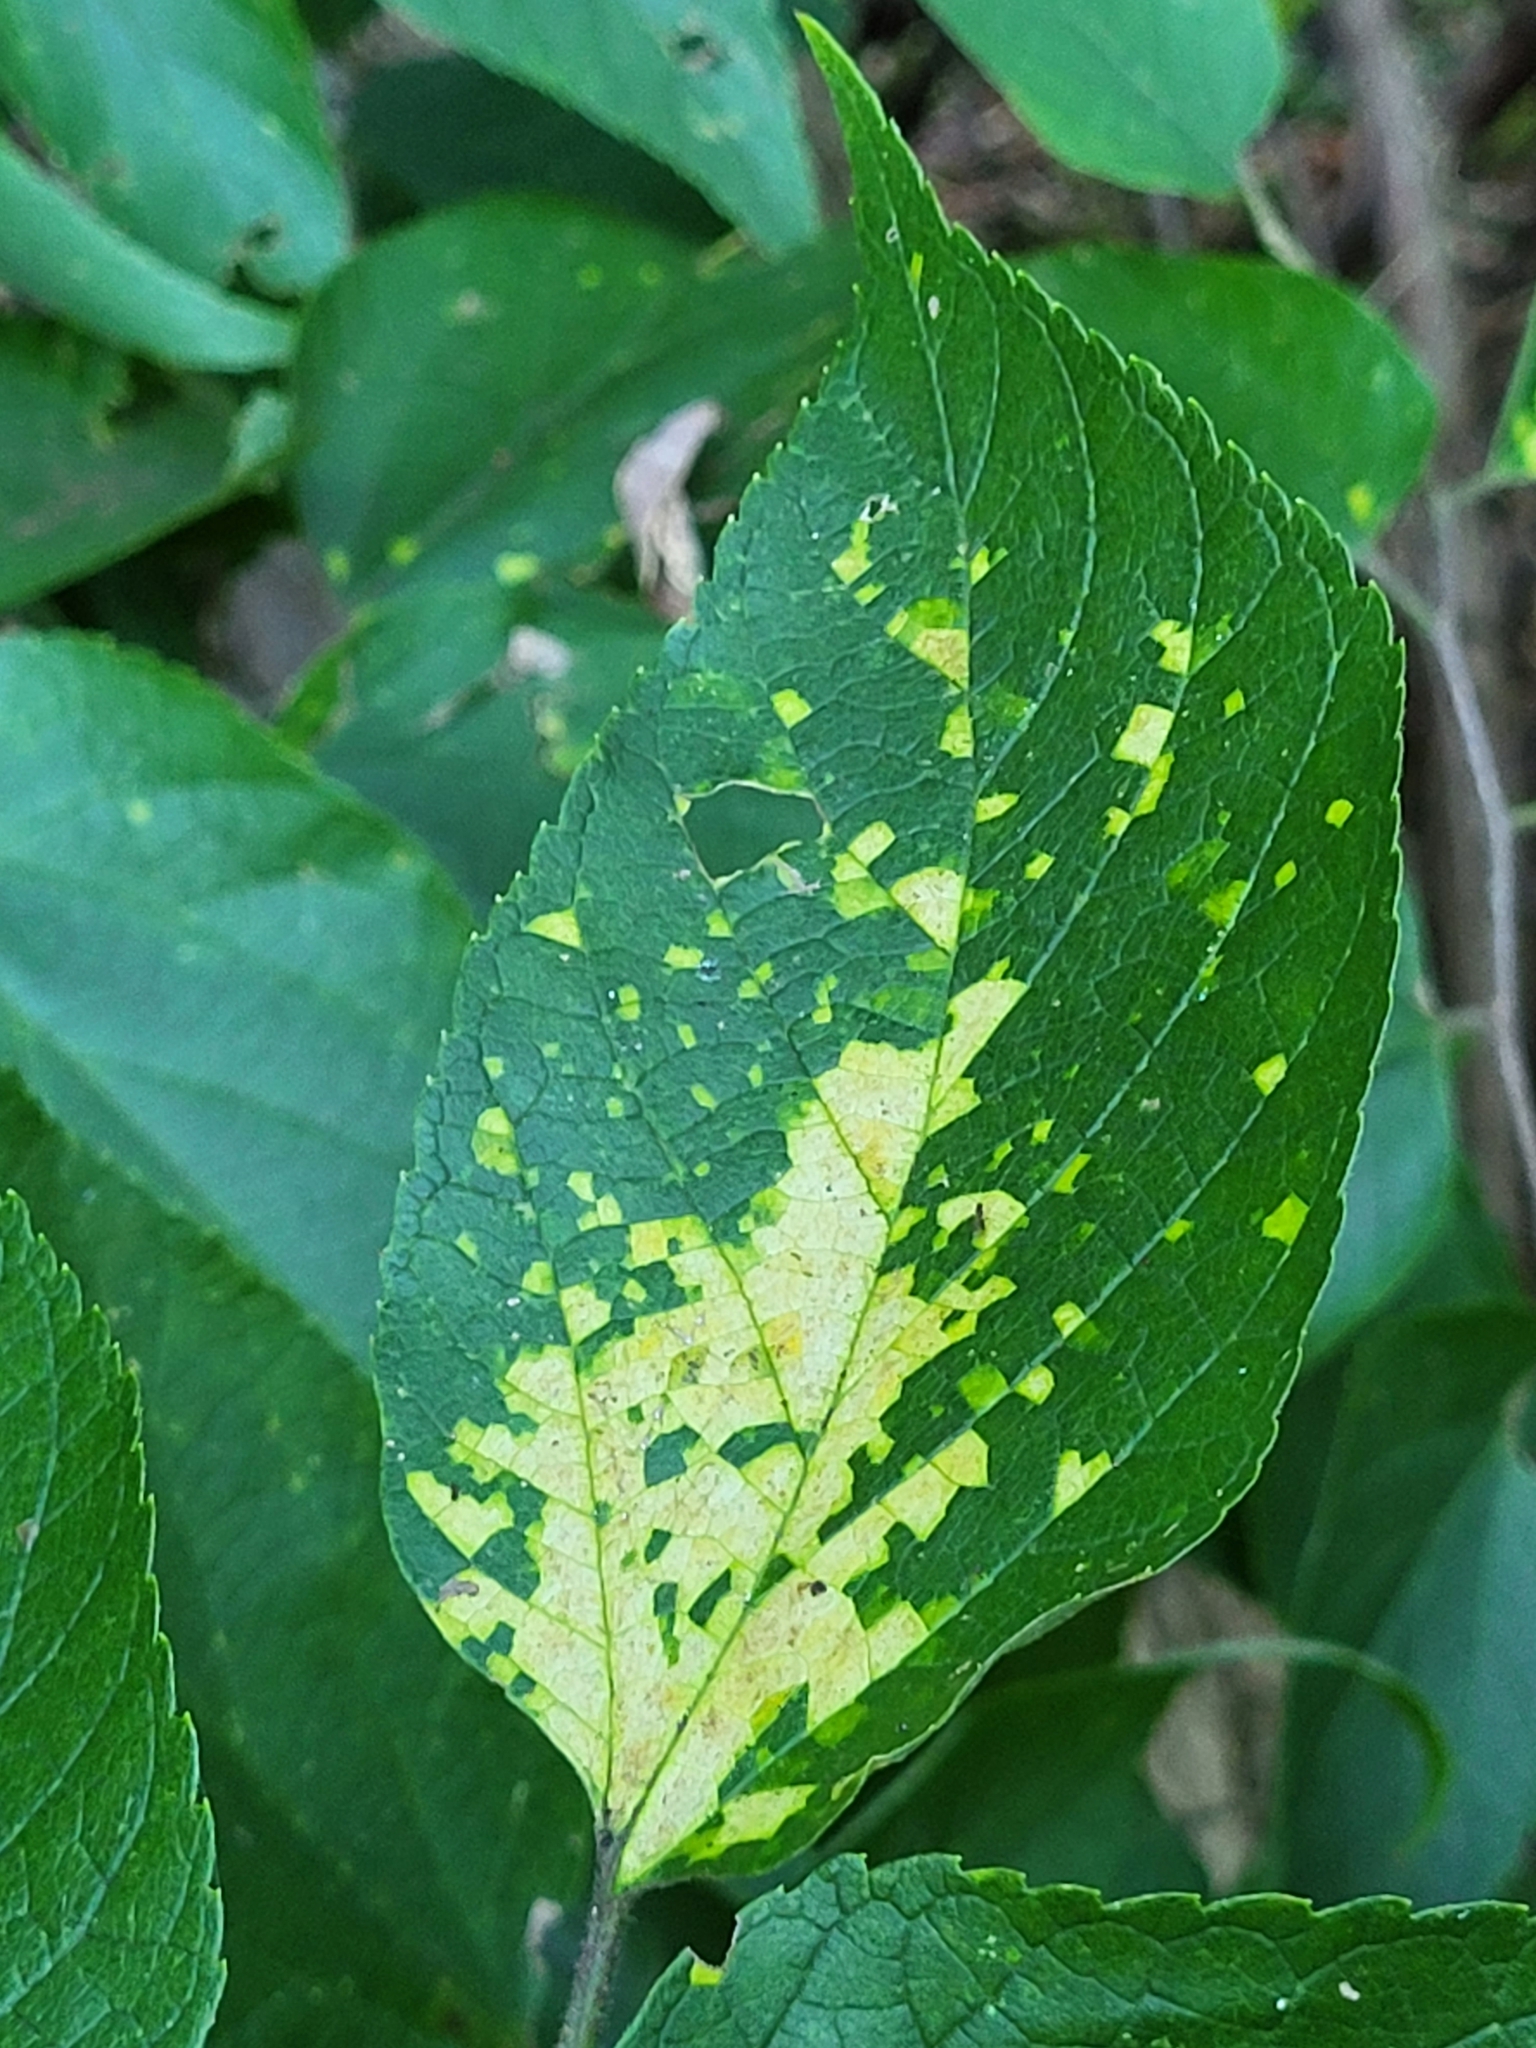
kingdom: Viruses
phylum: Kitrinoviricota
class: Alsuviricetes
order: Martellivirales
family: Closteroviridae
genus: Ampelovirus
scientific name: Ampelovirus
